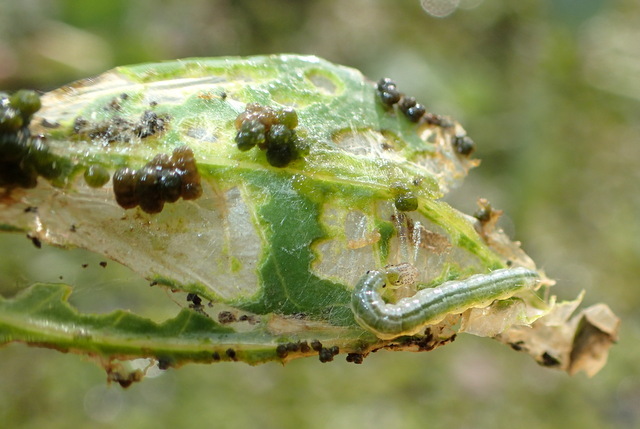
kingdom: Animalia
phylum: Arthropoda
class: Insecta
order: Lepidoptera
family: Crambidae
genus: Herpetogramma
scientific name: Herpetogramma bipunctalis
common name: Southern beet webworm
